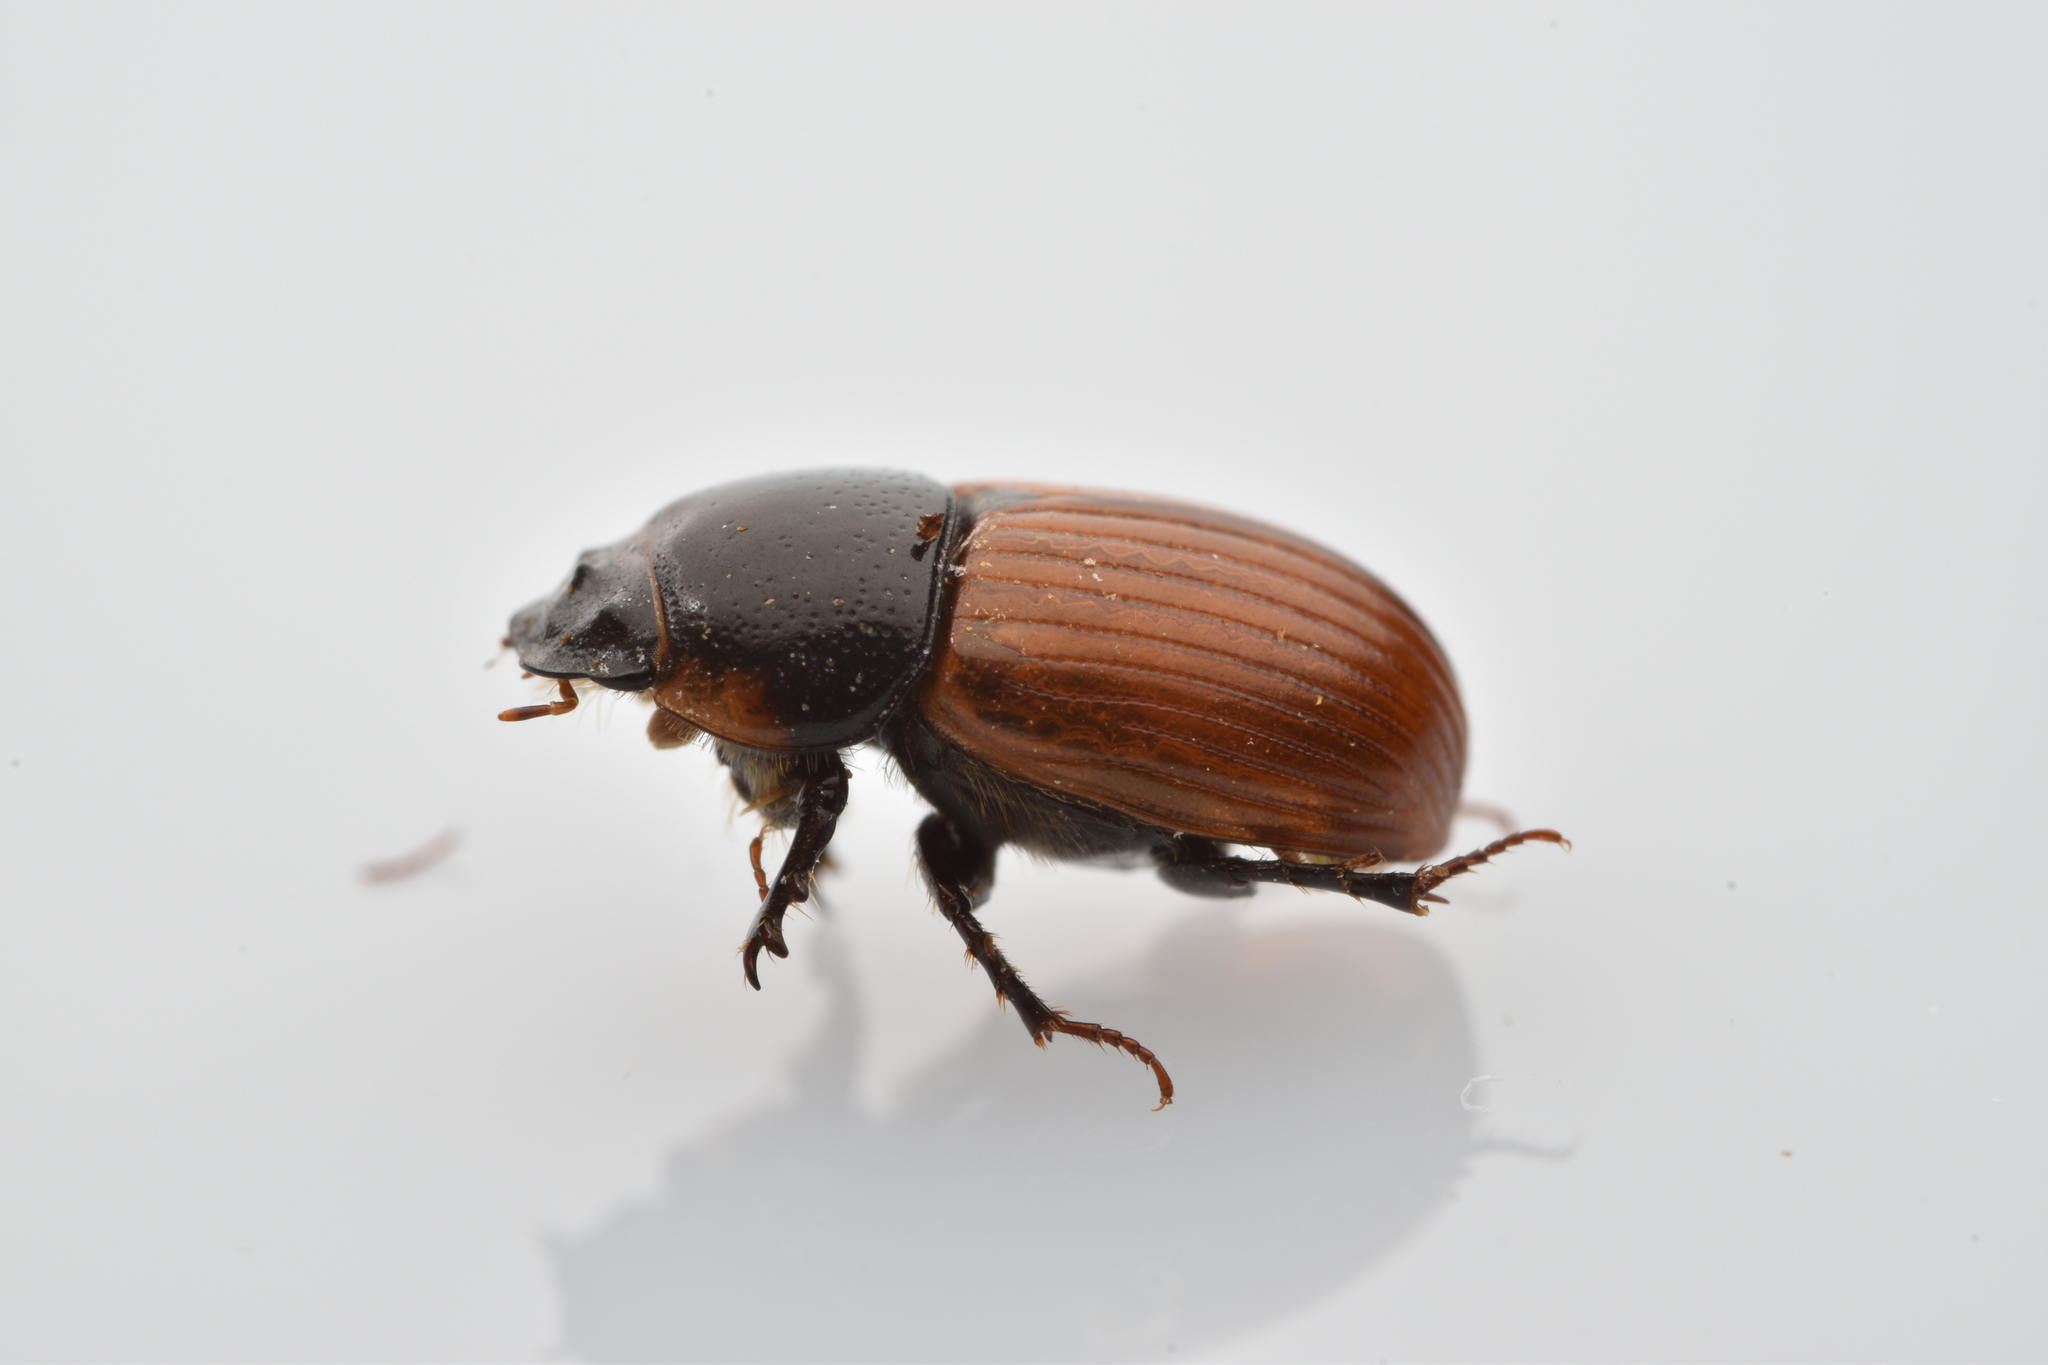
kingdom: Animalia
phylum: Arthropoda
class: Insecta
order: Coleoptera
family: Scarabaeidae
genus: Aphodius
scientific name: Aphodius pedellus
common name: Common dung beetle
